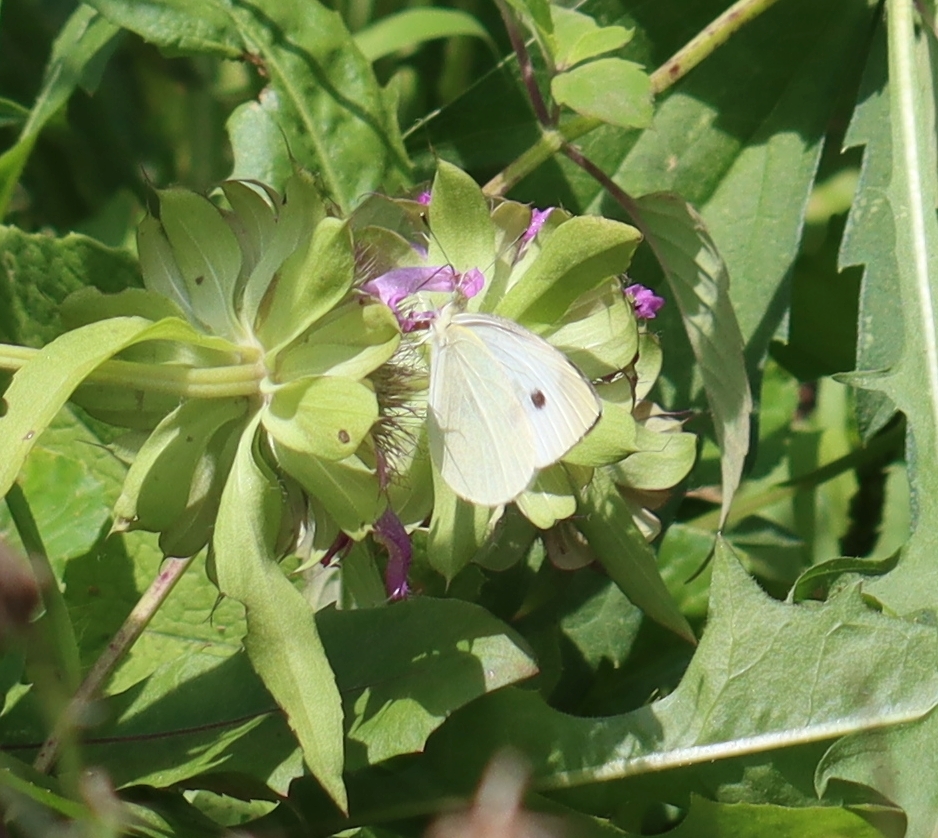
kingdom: Animalia
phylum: Arthropoda
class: Insecta
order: Lepidoptera
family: Pieridae
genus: Pieris
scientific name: Pieris rapae
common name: Small white
